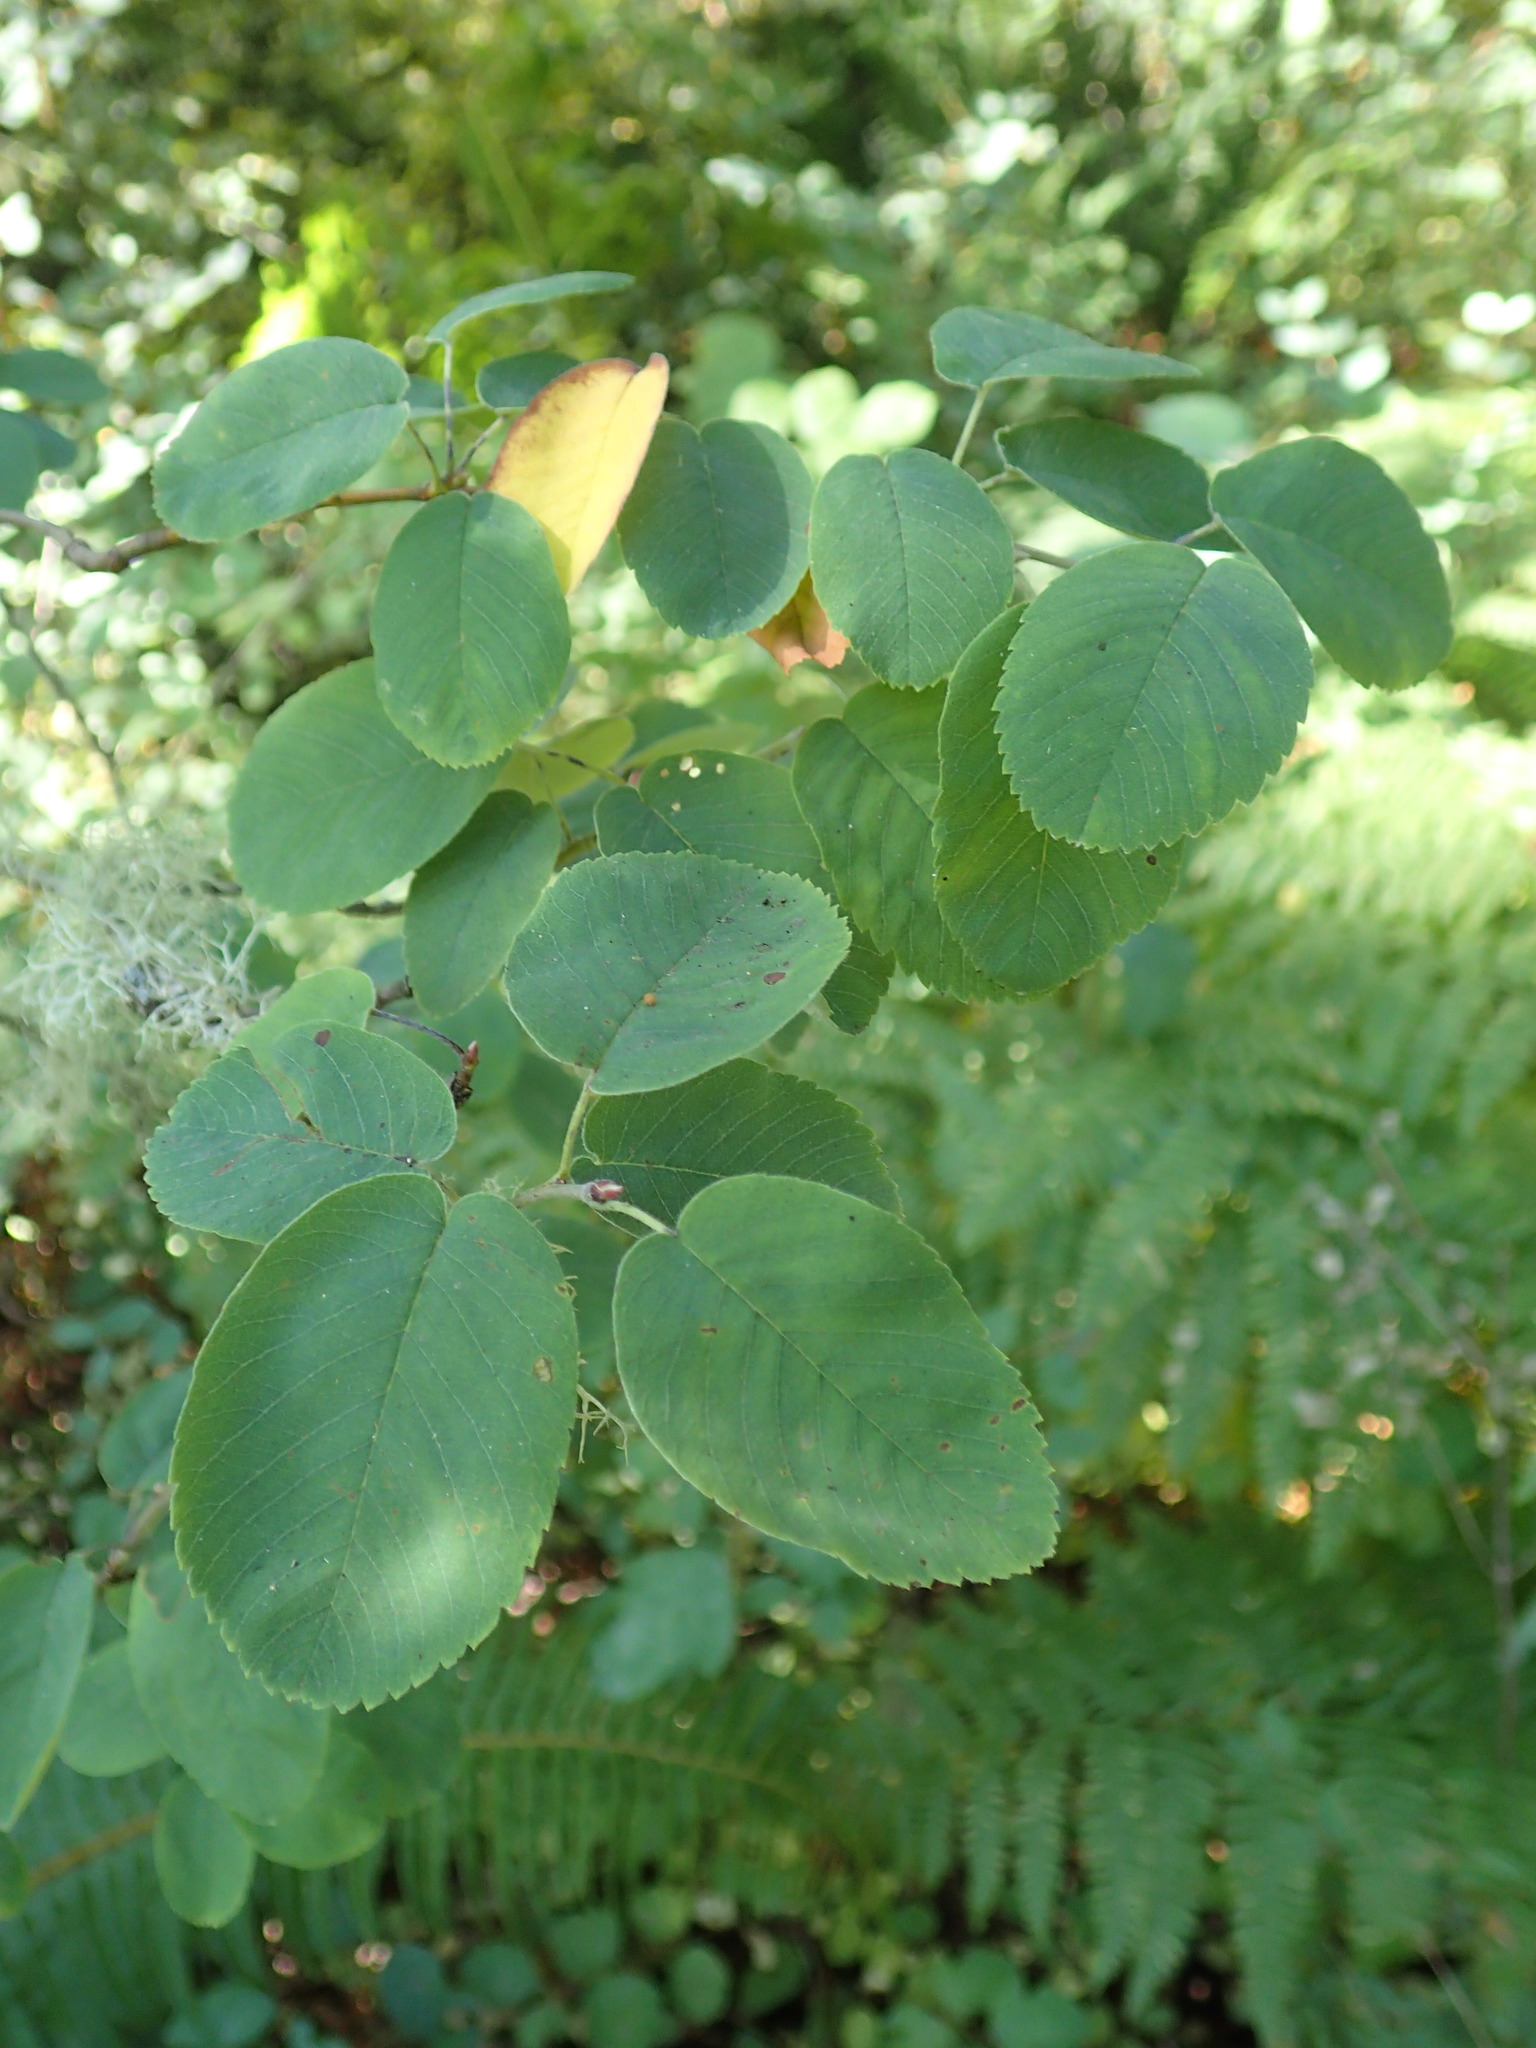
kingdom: Plantae
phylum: Tracheophyta
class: Magnoliopsida
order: Rosales
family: Rosaceae
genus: Amelanchier
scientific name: Amelanchier alnifolia
